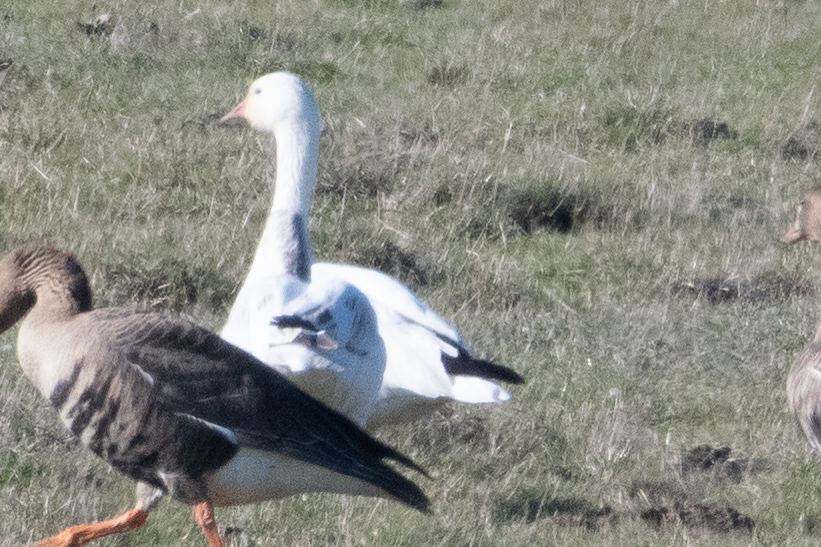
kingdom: Animalia
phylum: Chordata
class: Aves
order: Anseriformes
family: Anatidae
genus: Anser
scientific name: Anser caerulescens
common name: Snow goose
